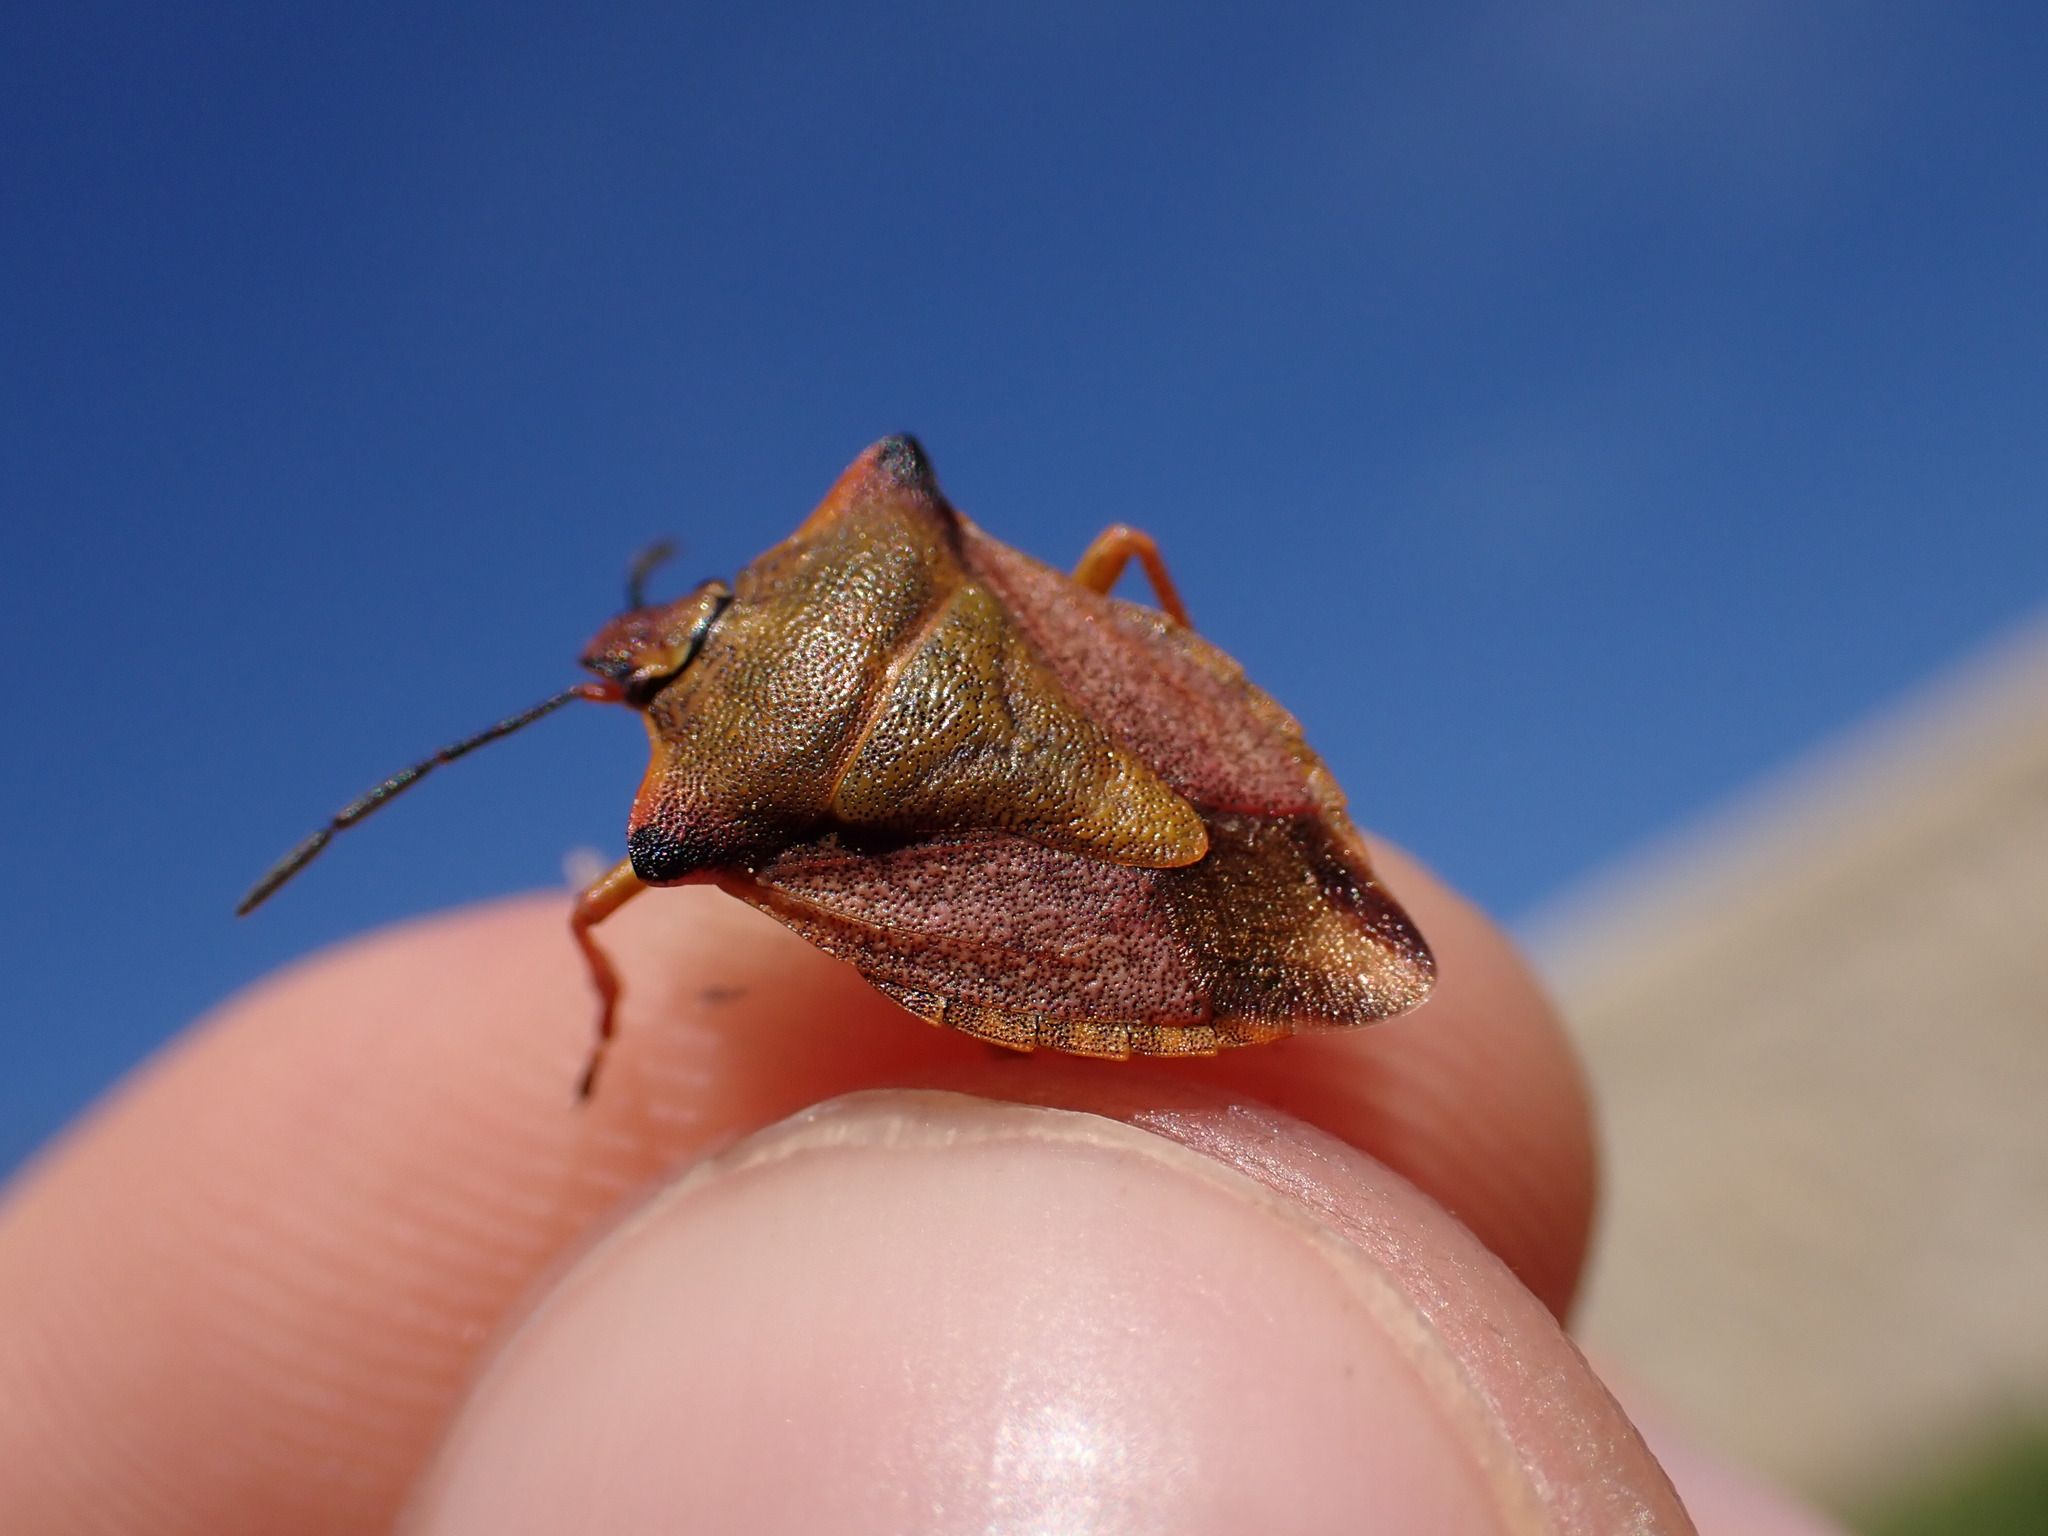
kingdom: Animalia
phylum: Arthropoda
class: Insecta
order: Hemiptera
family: Pentatomidae
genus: Carpocoris
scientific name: Carpocoris mediterraneus
